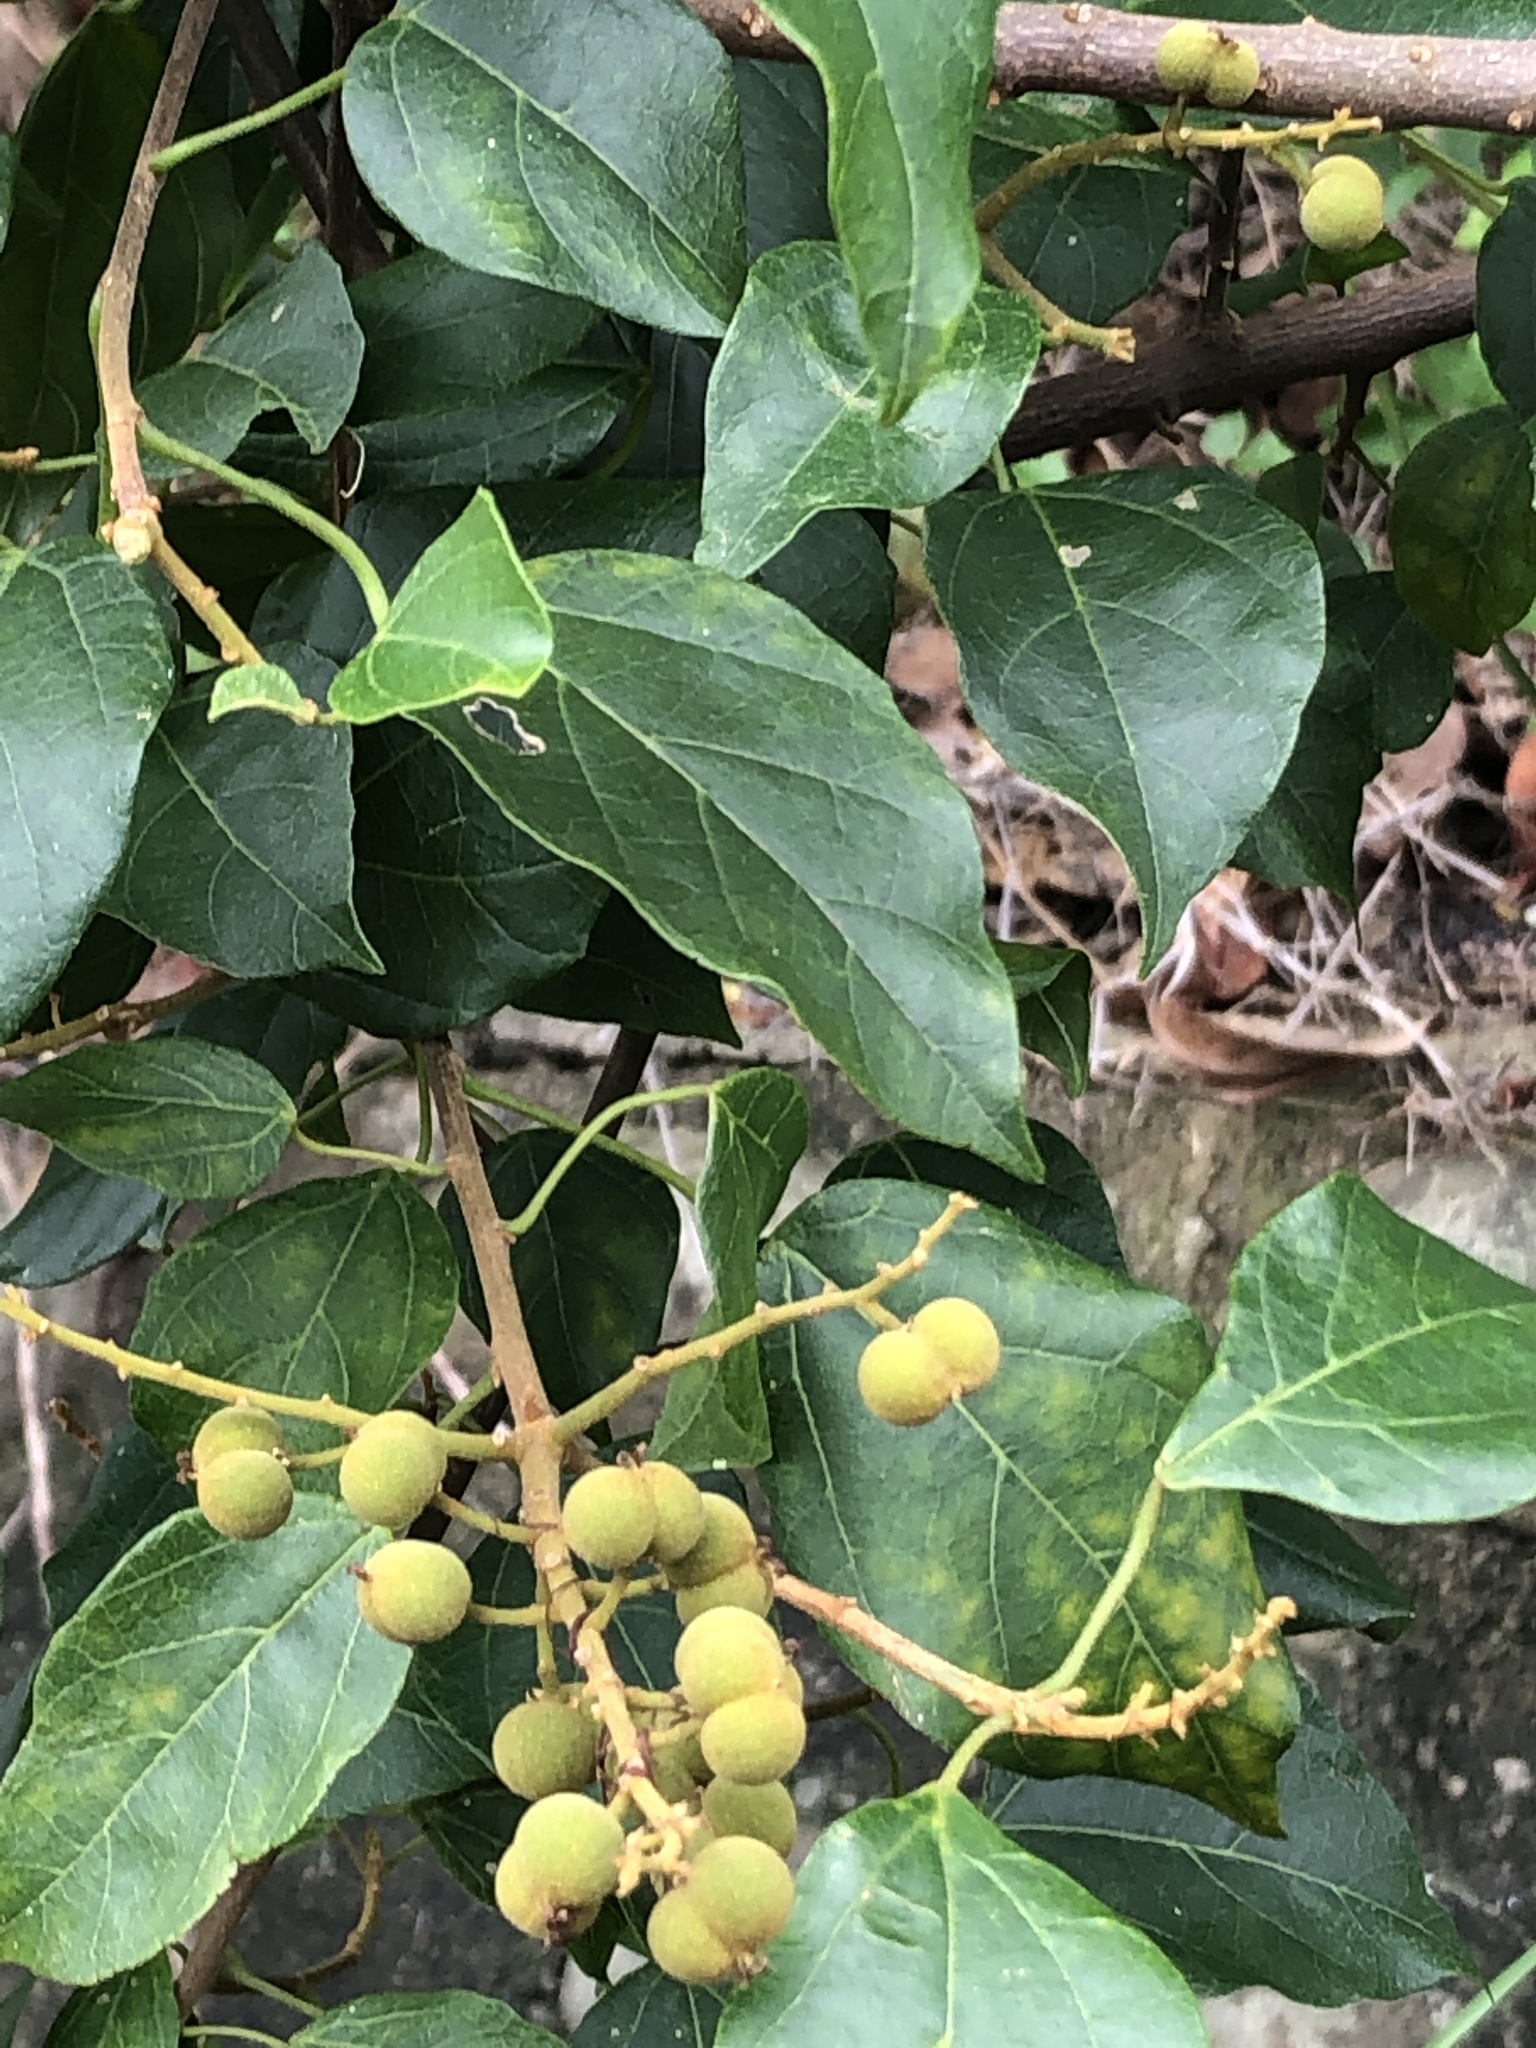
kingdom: Plantae
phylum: Tracheophyta
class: Magnoliopsida
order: Malpighiales
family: Euphorbiaceae
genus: Mallotus
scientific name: Mallotus repandus
